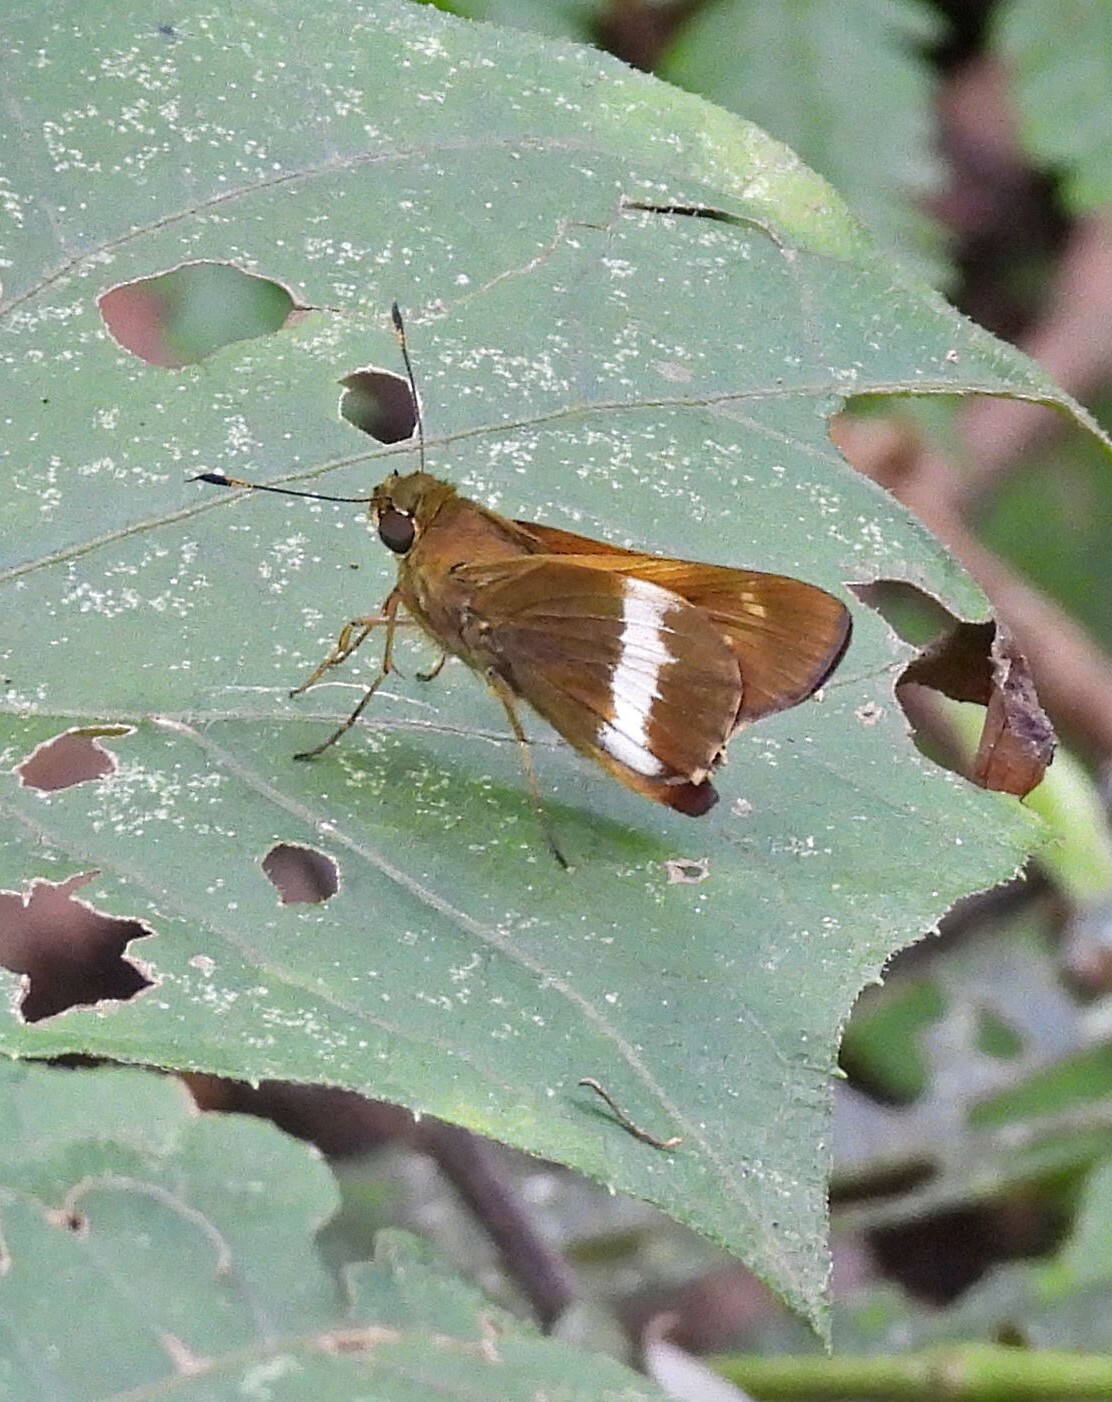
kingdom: Animalia
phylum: Arthropoda
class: Insecta
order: Lepidoptera
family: Hesperiidae
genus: Tirynthia
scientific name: Tirynthia conflua
